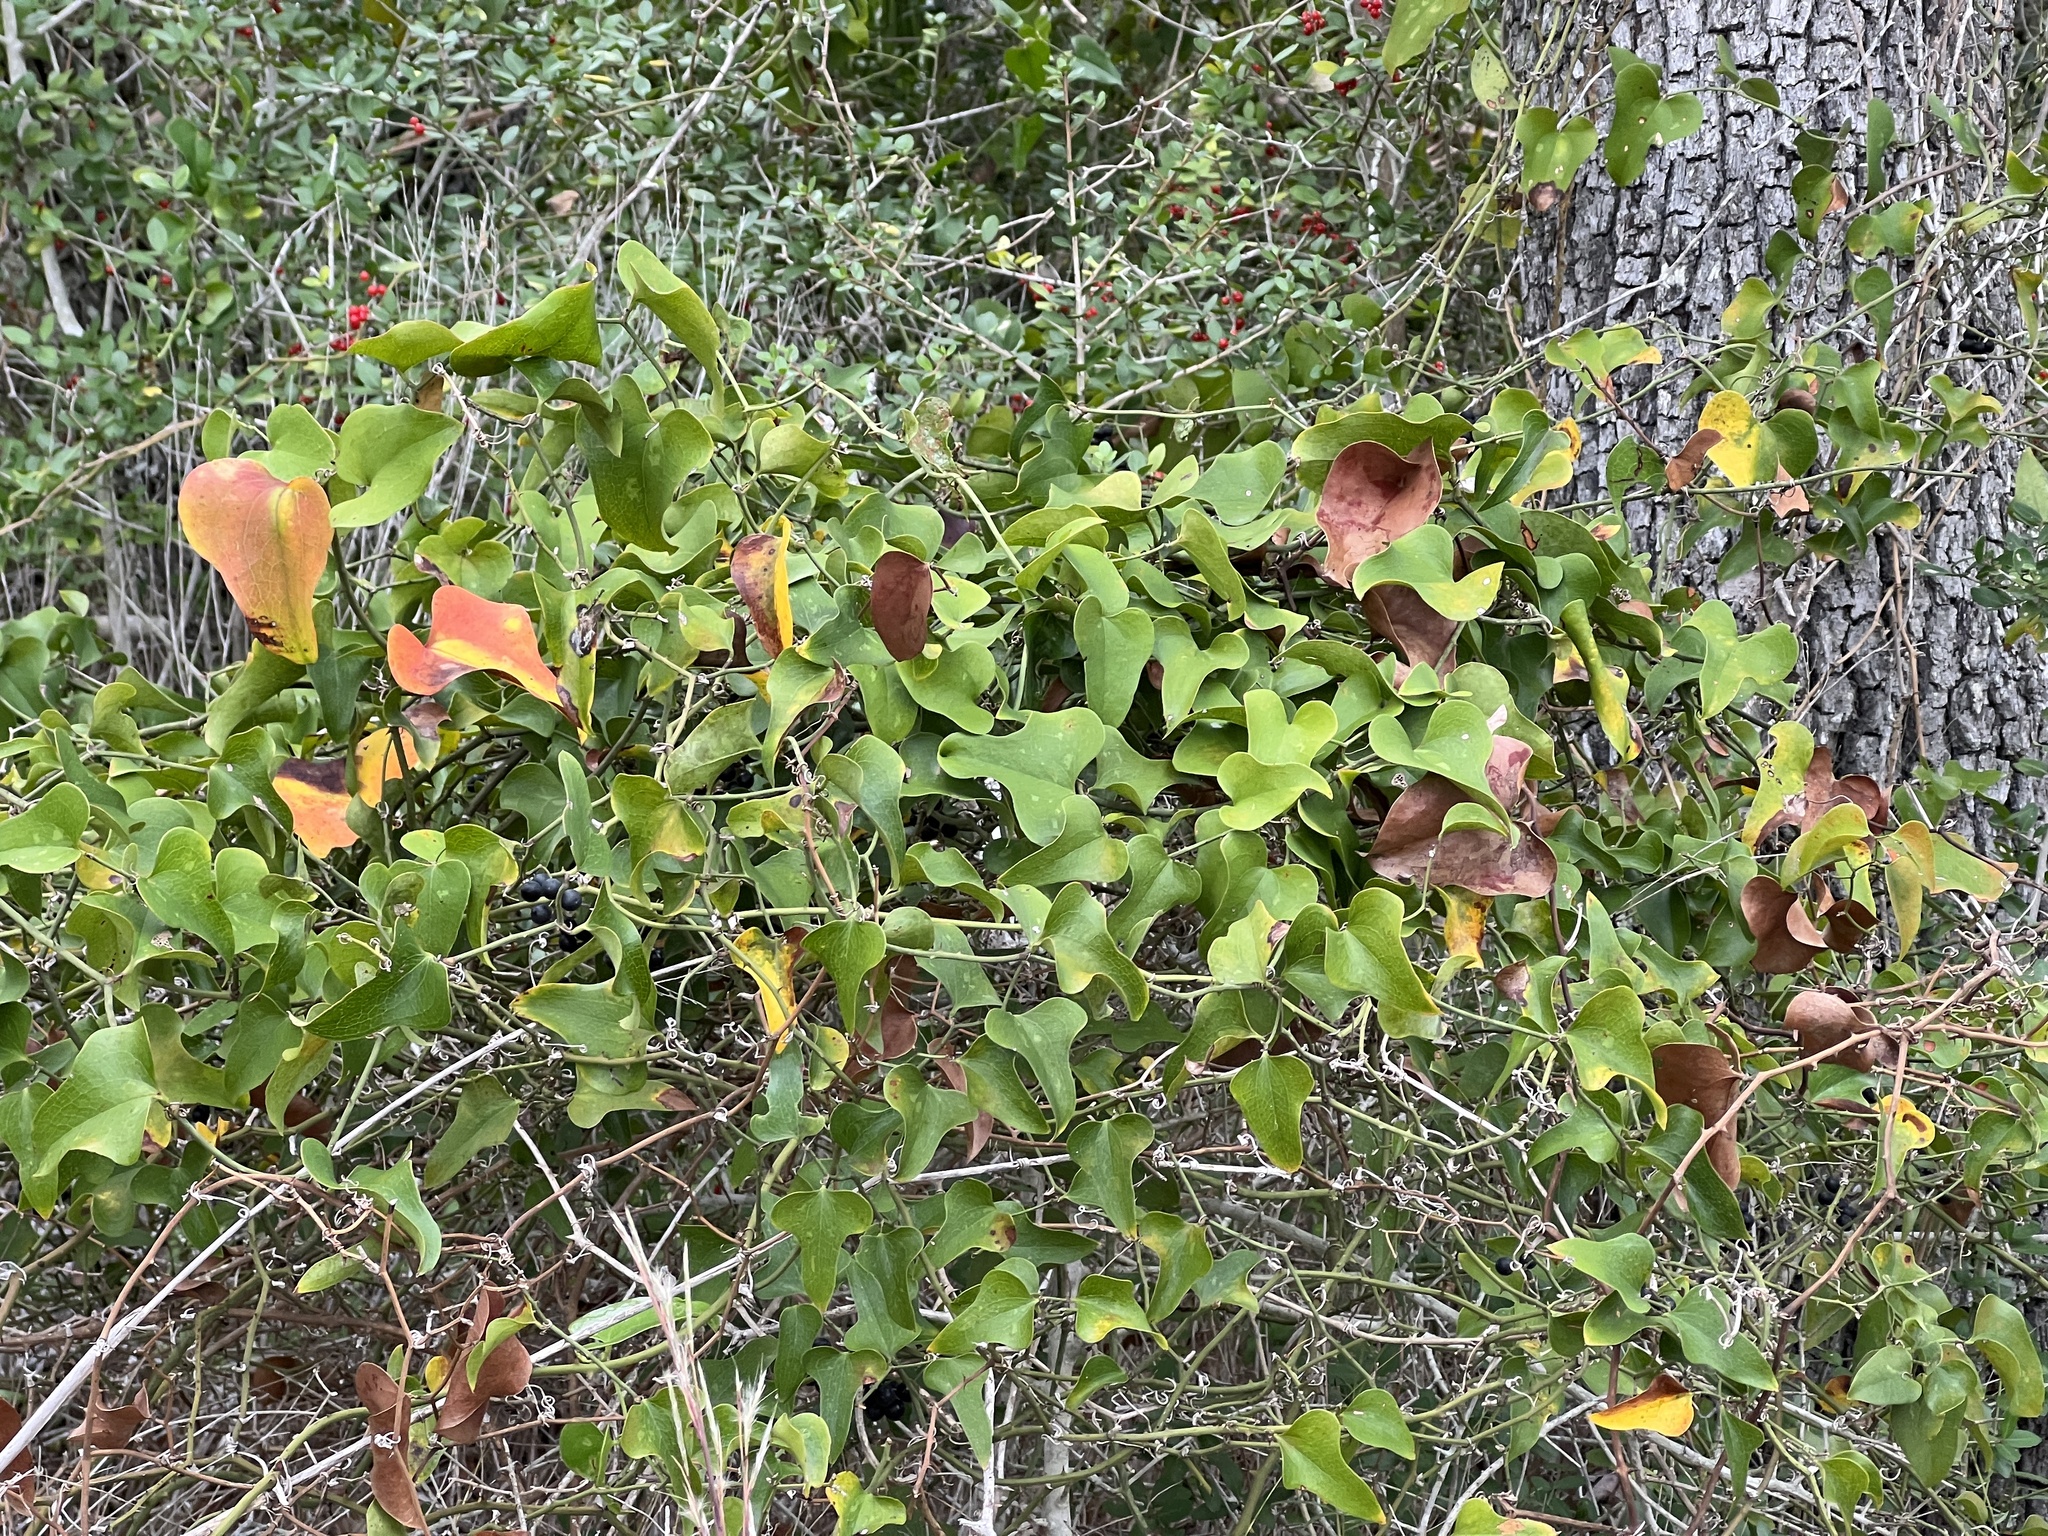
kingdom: Plantae
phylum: Tracheophyta
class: Liliopsida
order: Liliales
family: Smilacaceae
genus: Smilax
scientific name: Smilax bona-nox
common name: Catbrier
